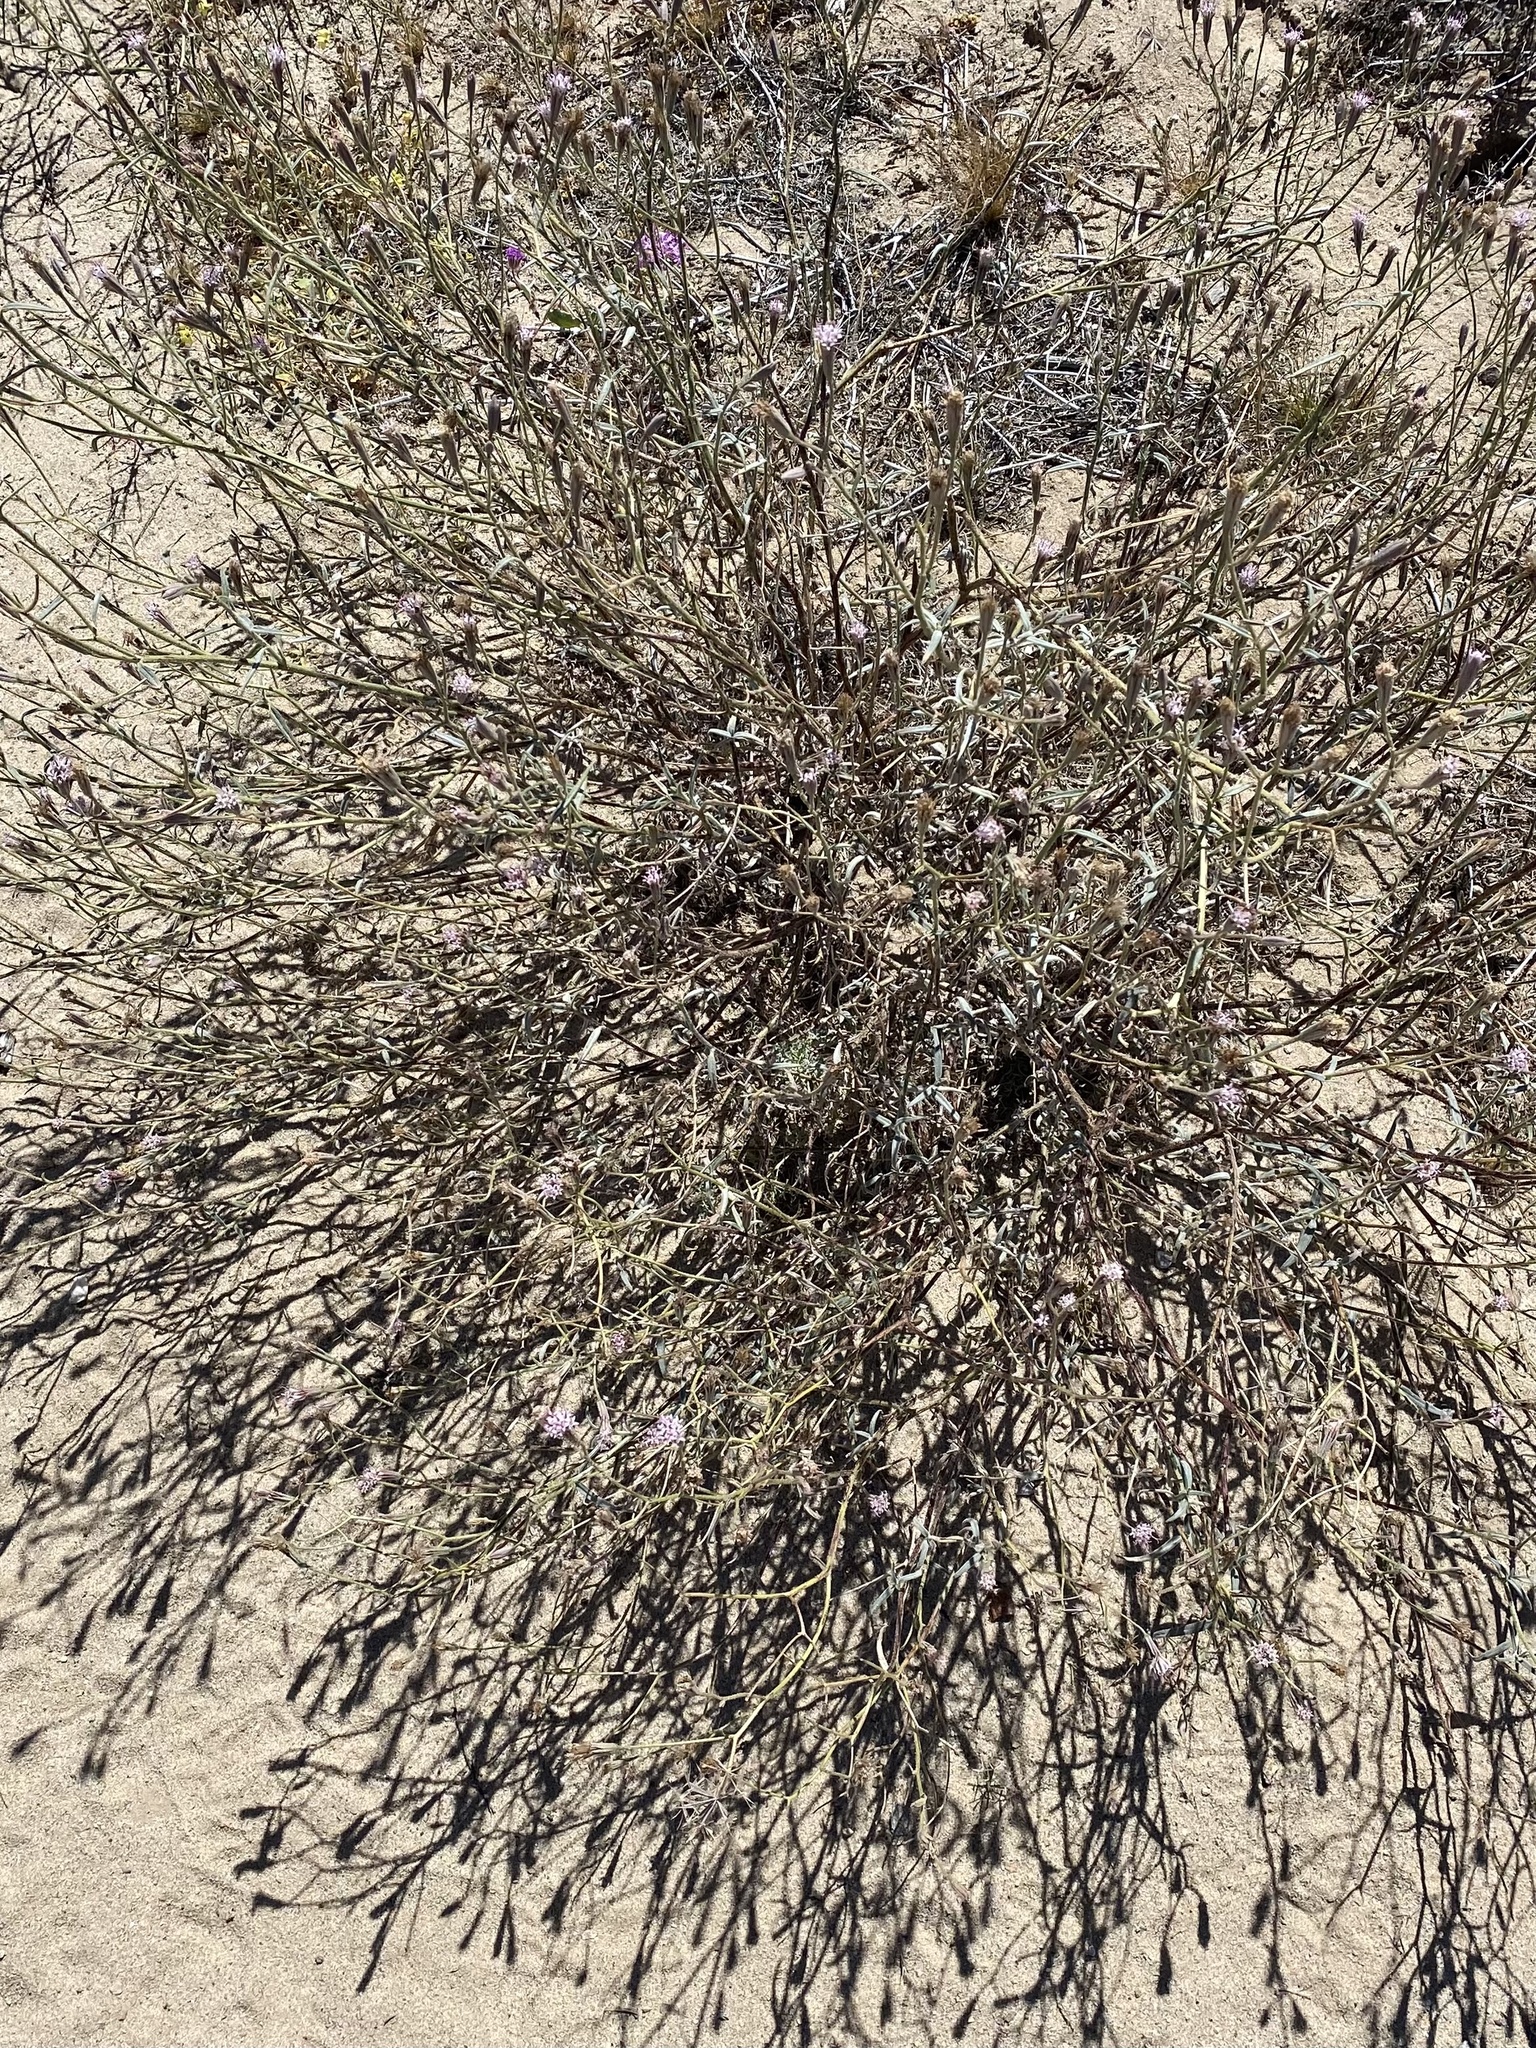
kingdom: Plantae
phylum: Tracheophyta
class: Magnoliopsida
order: Asterales
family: Asteraceae
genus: Palafoxia
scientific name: Palafoxia arida
